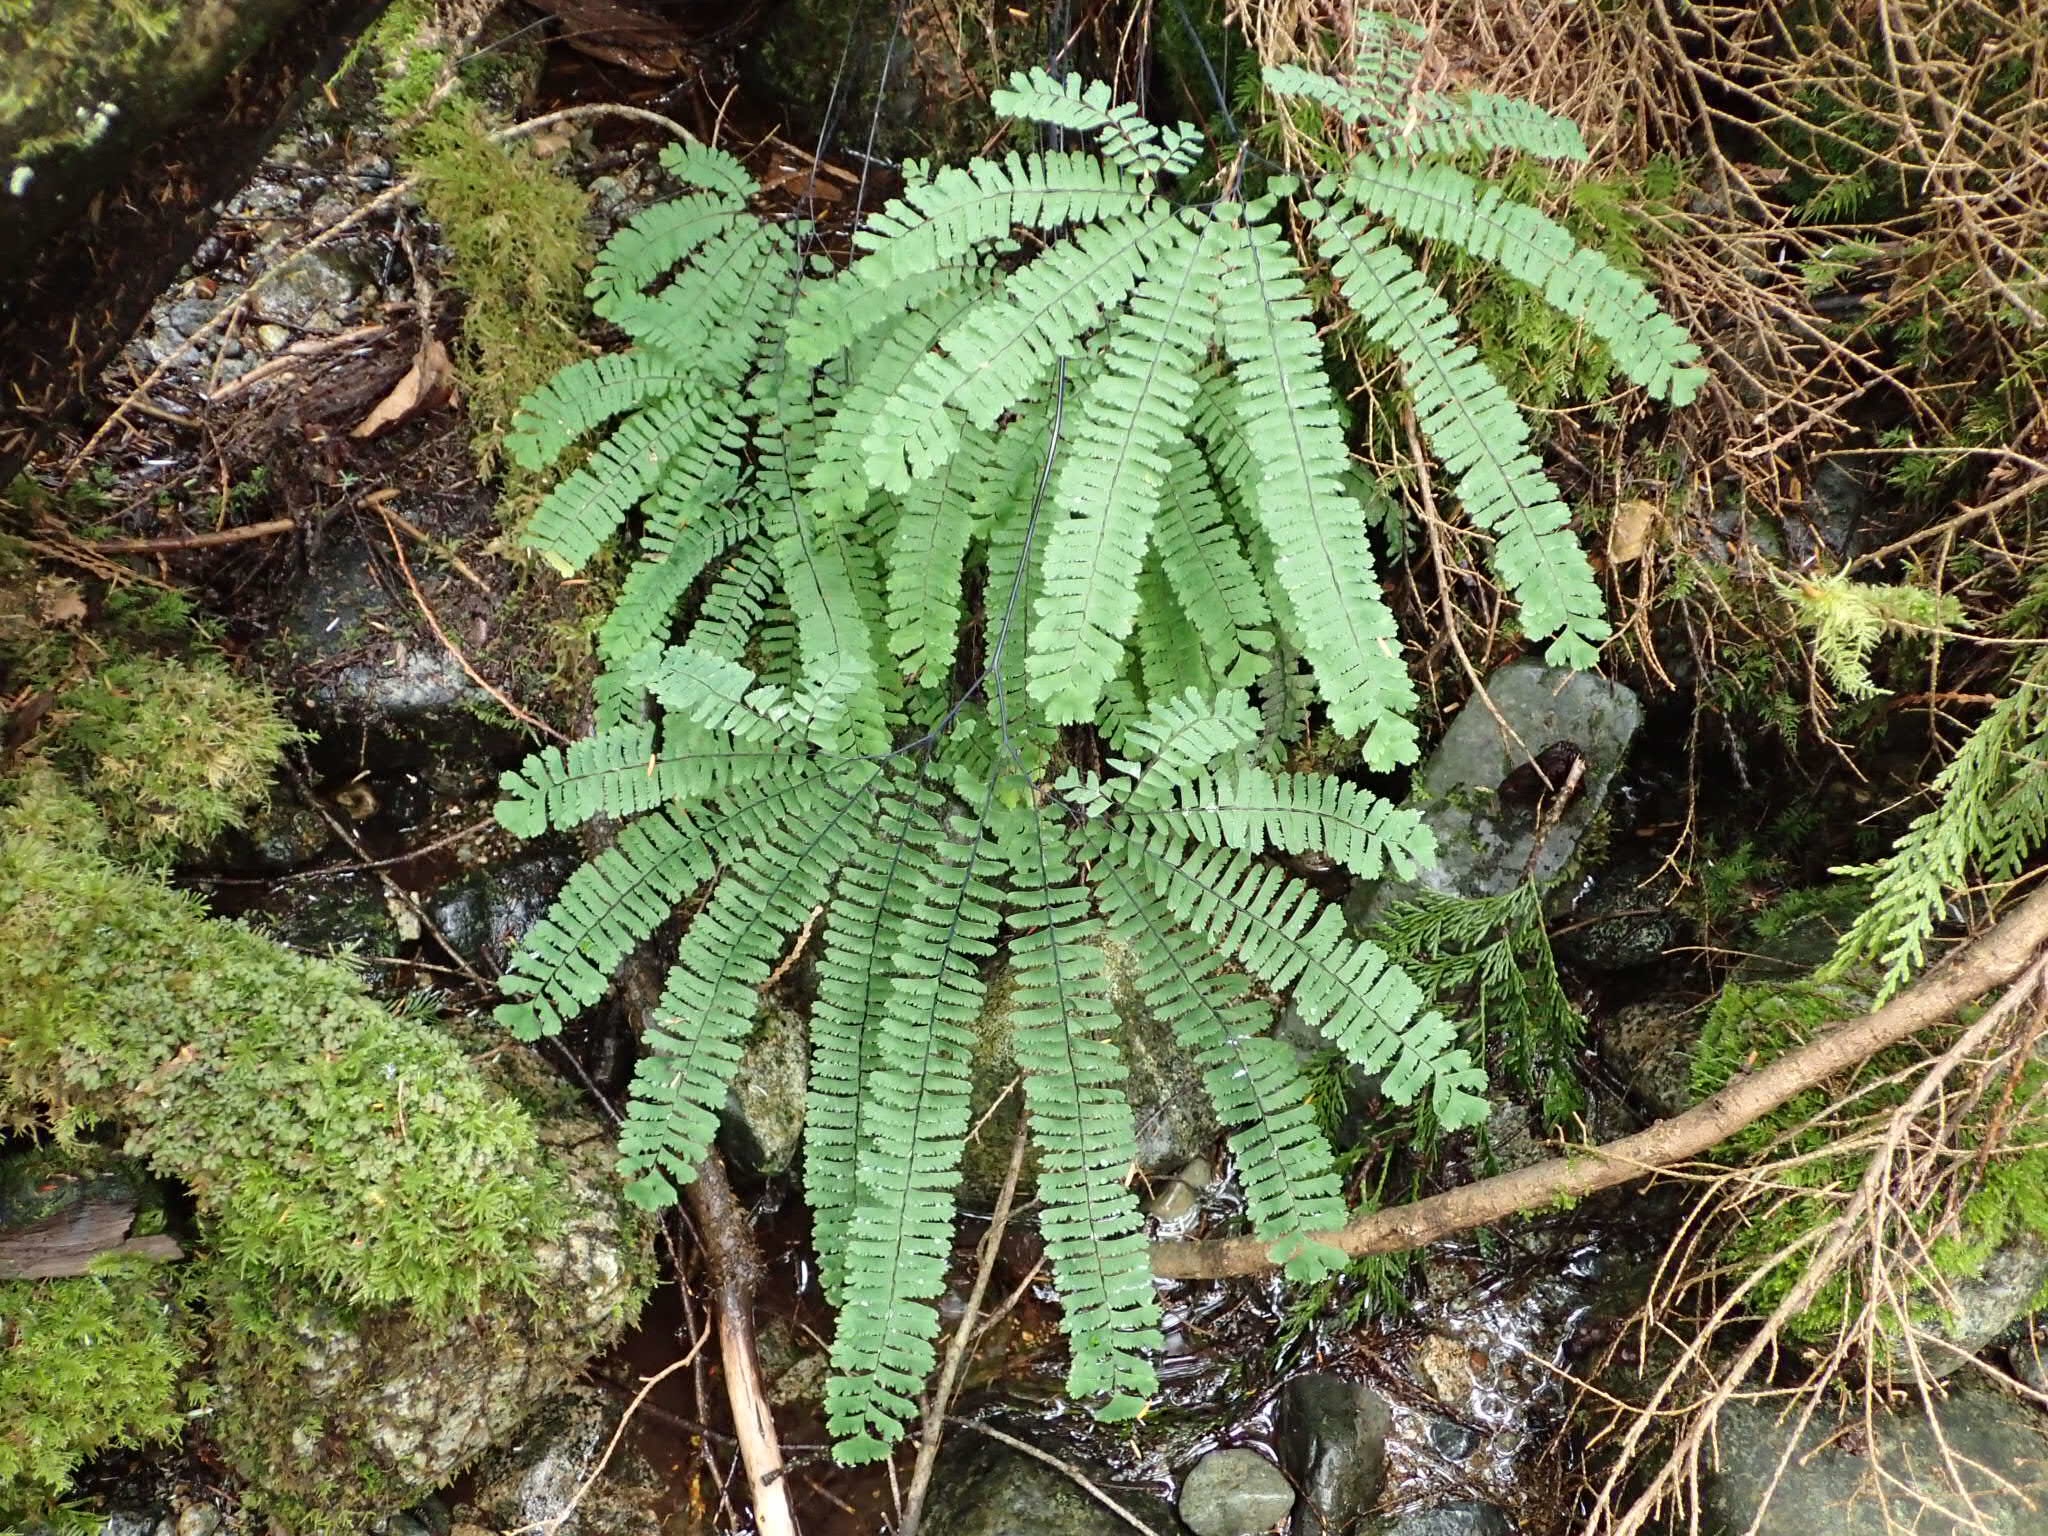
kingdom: Plantae
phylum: Tracheophyta
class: Polypodiopsida
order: Polypodiales
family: Pteridaceae
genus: Adiantum
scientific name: Adiantum aleuticum
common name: Aleutian maidenhair fern
